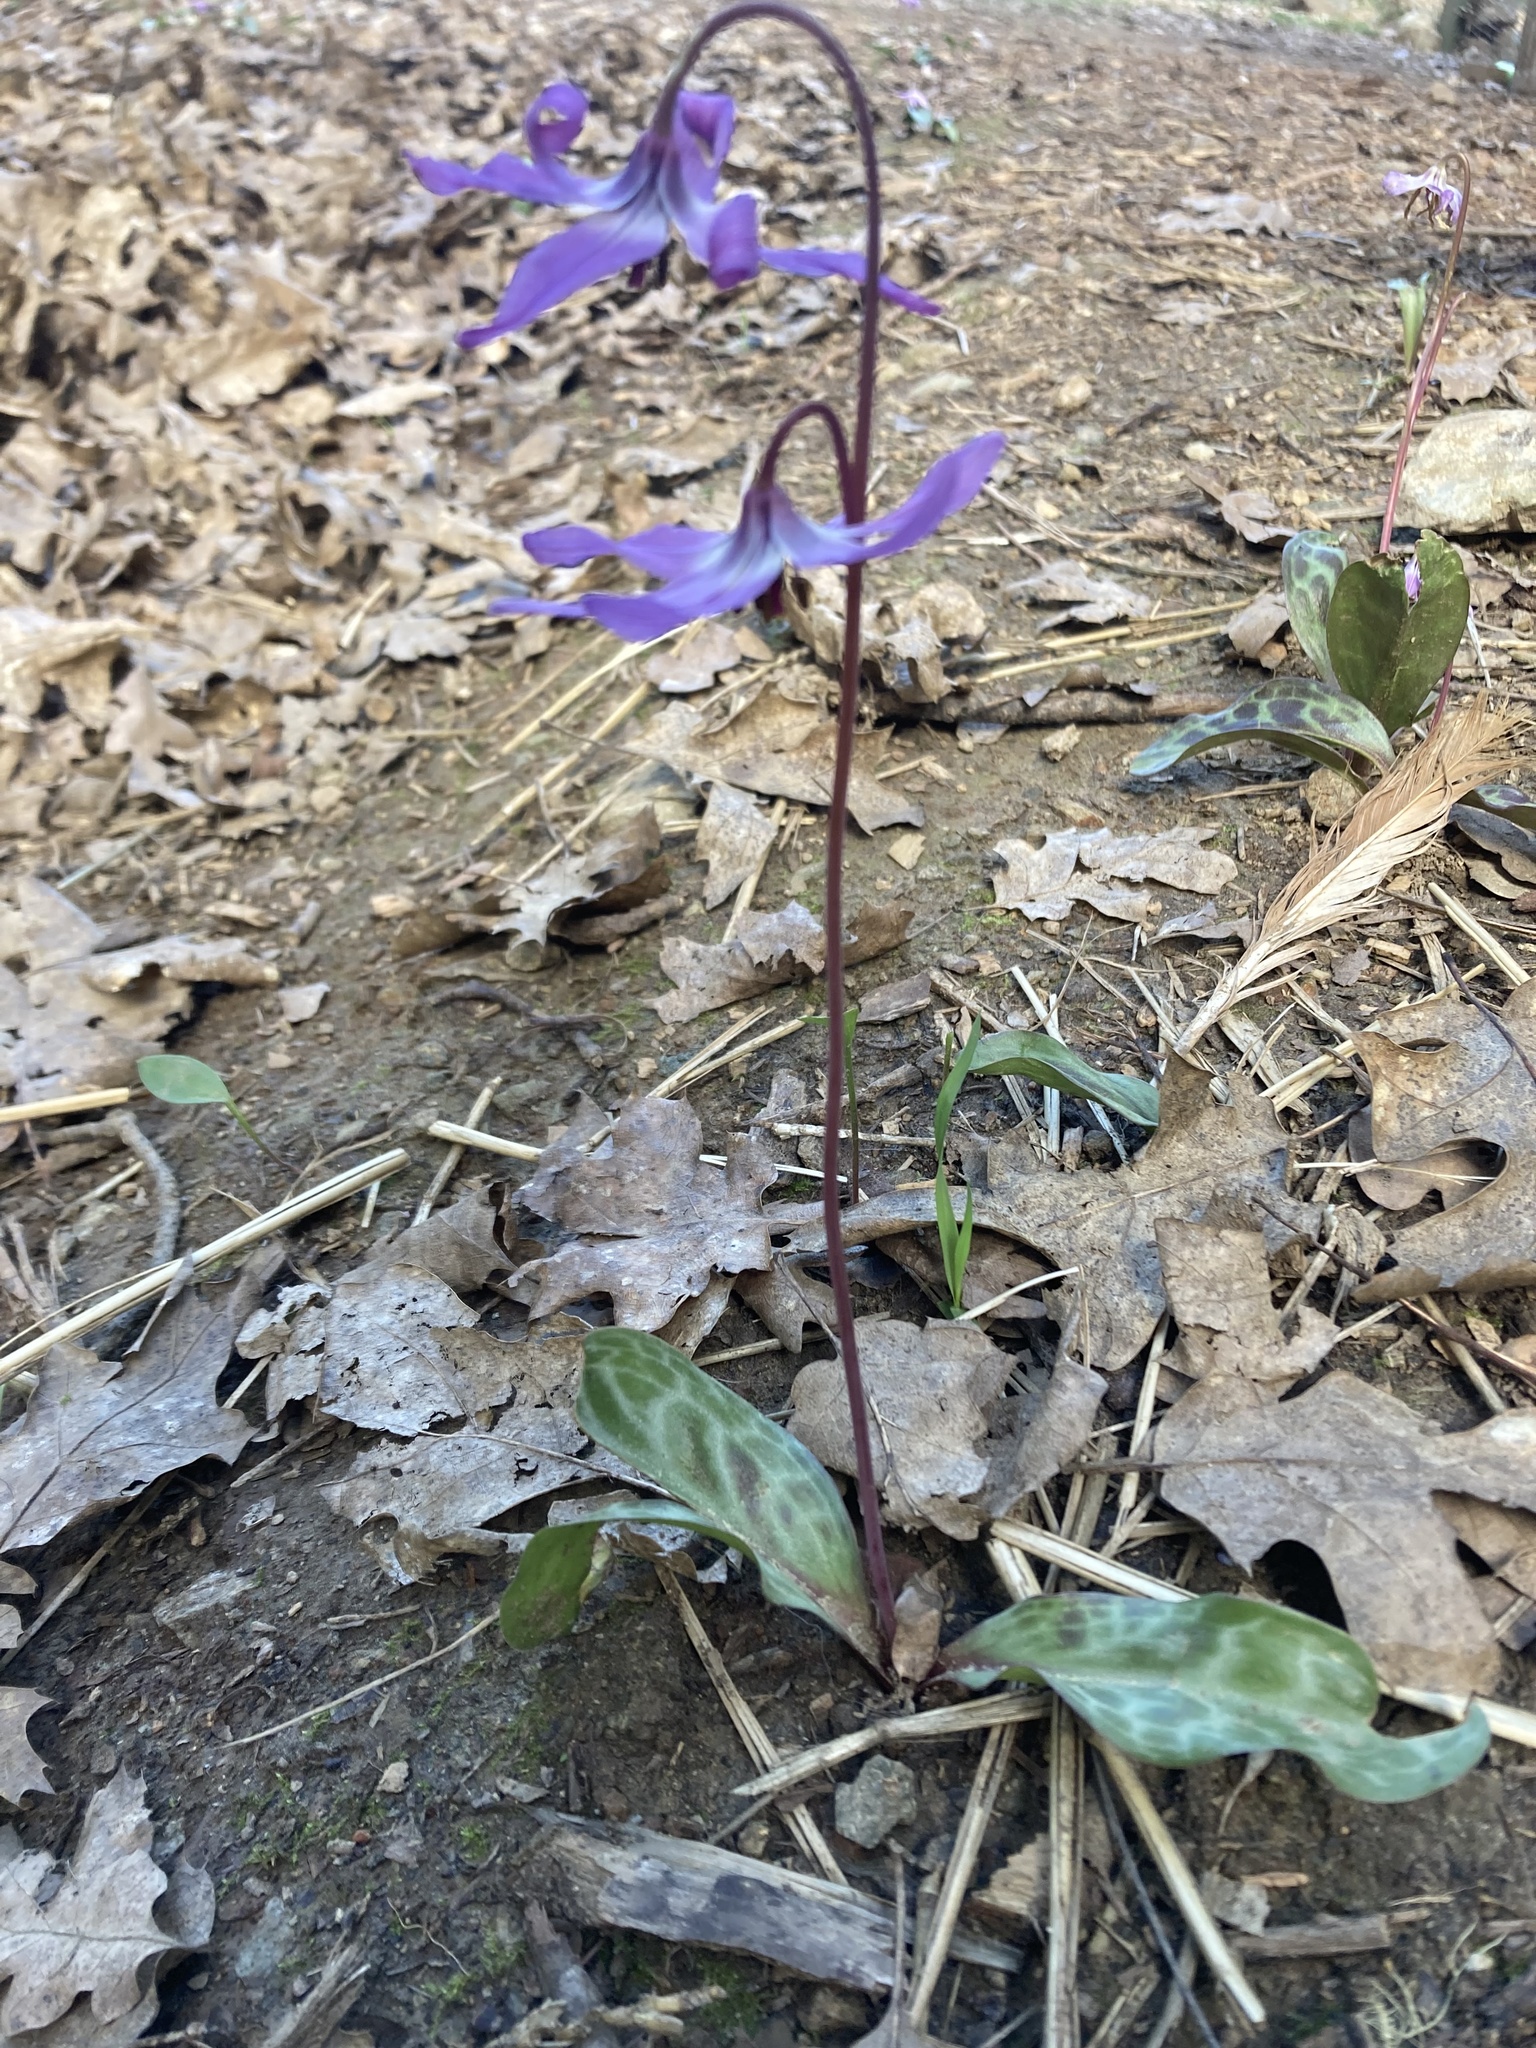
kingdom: Plantae
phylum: Tracheophyta
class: Liliopsida
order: Liliales
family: Liliaceae
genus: Erythronium
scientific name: Erythronium hendersonii
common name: Henderson's fawn-lily
